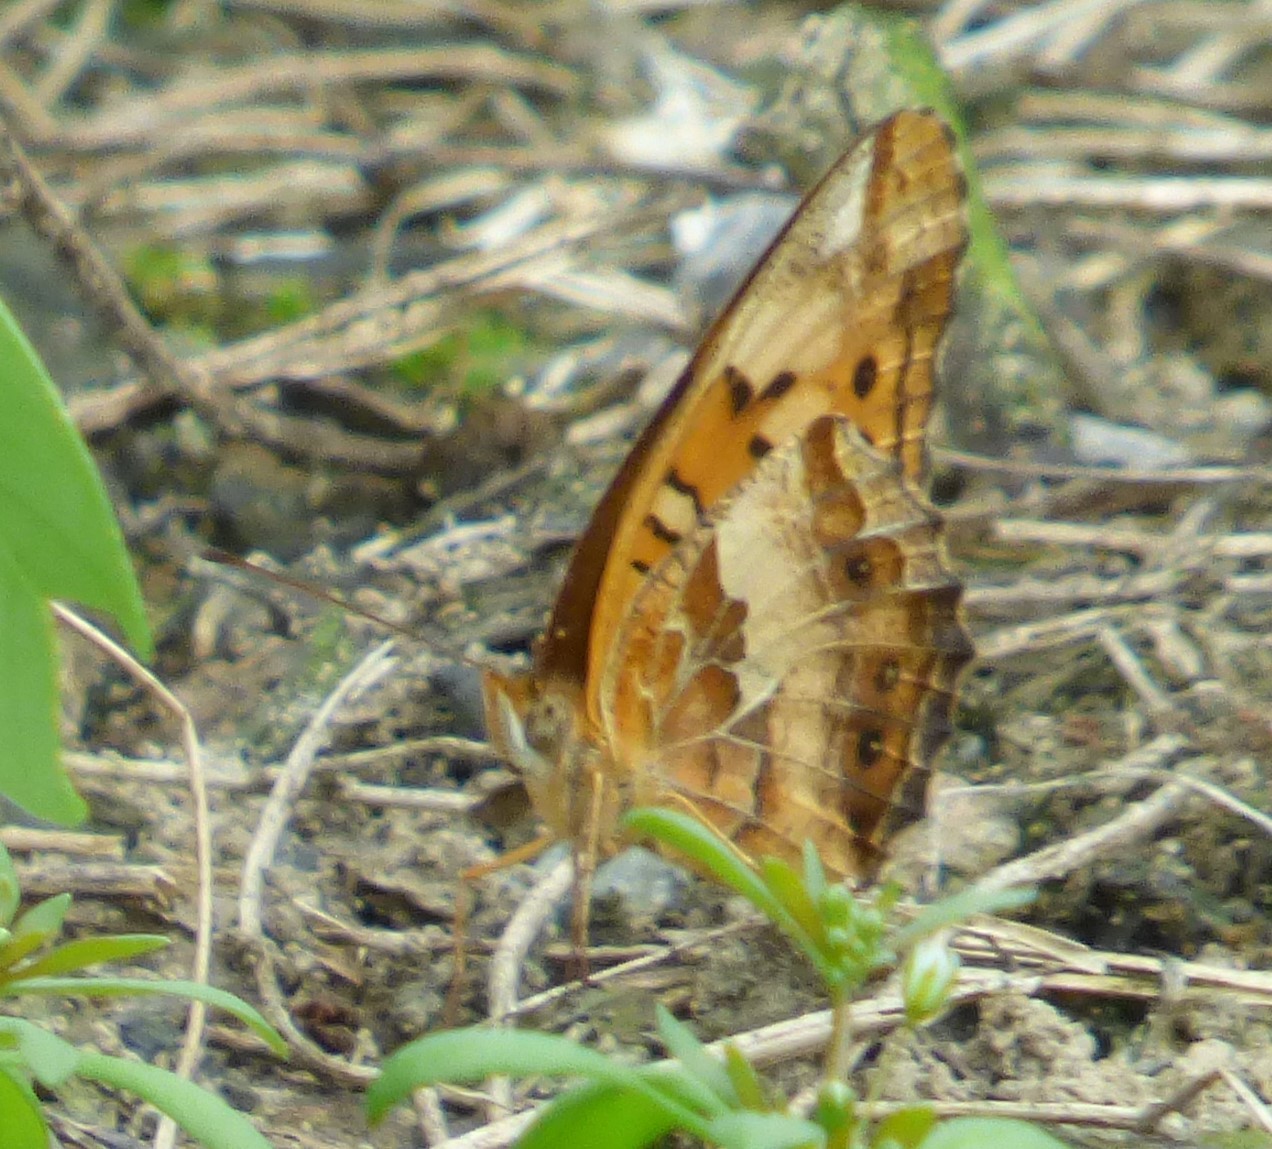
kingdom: Animalia
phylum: Arthropoda
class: Insecta
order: Lepidoptera
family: Nymphalidae
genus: Euptoieta
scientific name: Euptoieta claudia
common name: Variegated fritillary
